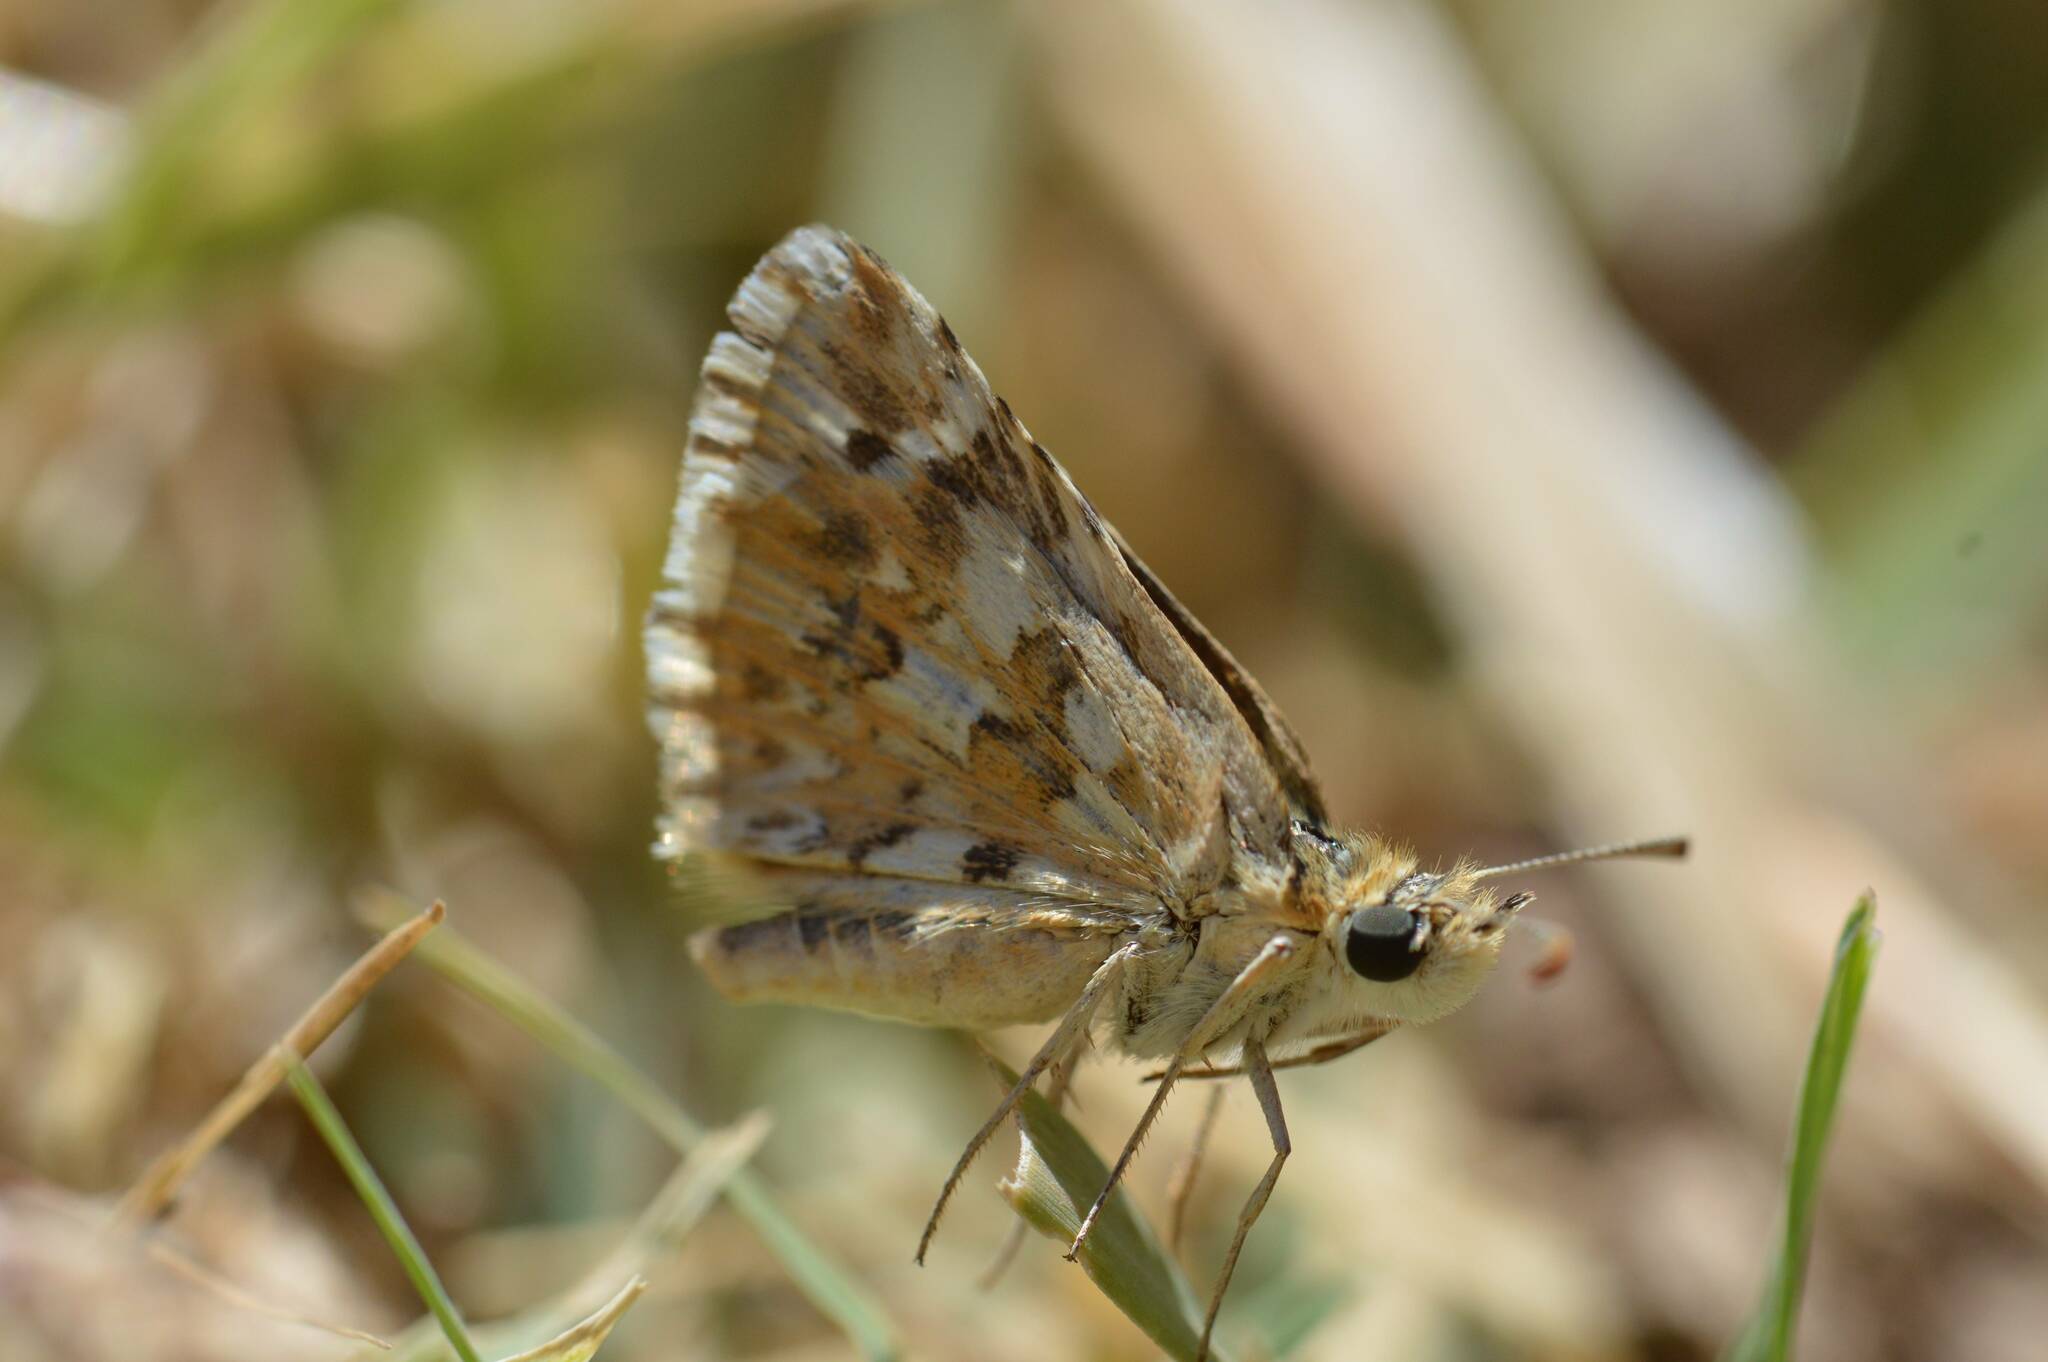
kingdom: Animalia
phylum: Arthropoda
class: Insecta
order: Lepidoptera
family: Hesperiidae
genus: Pyrgus
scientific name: Pyrgus onopordi
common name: Rosy grizzled skipper
